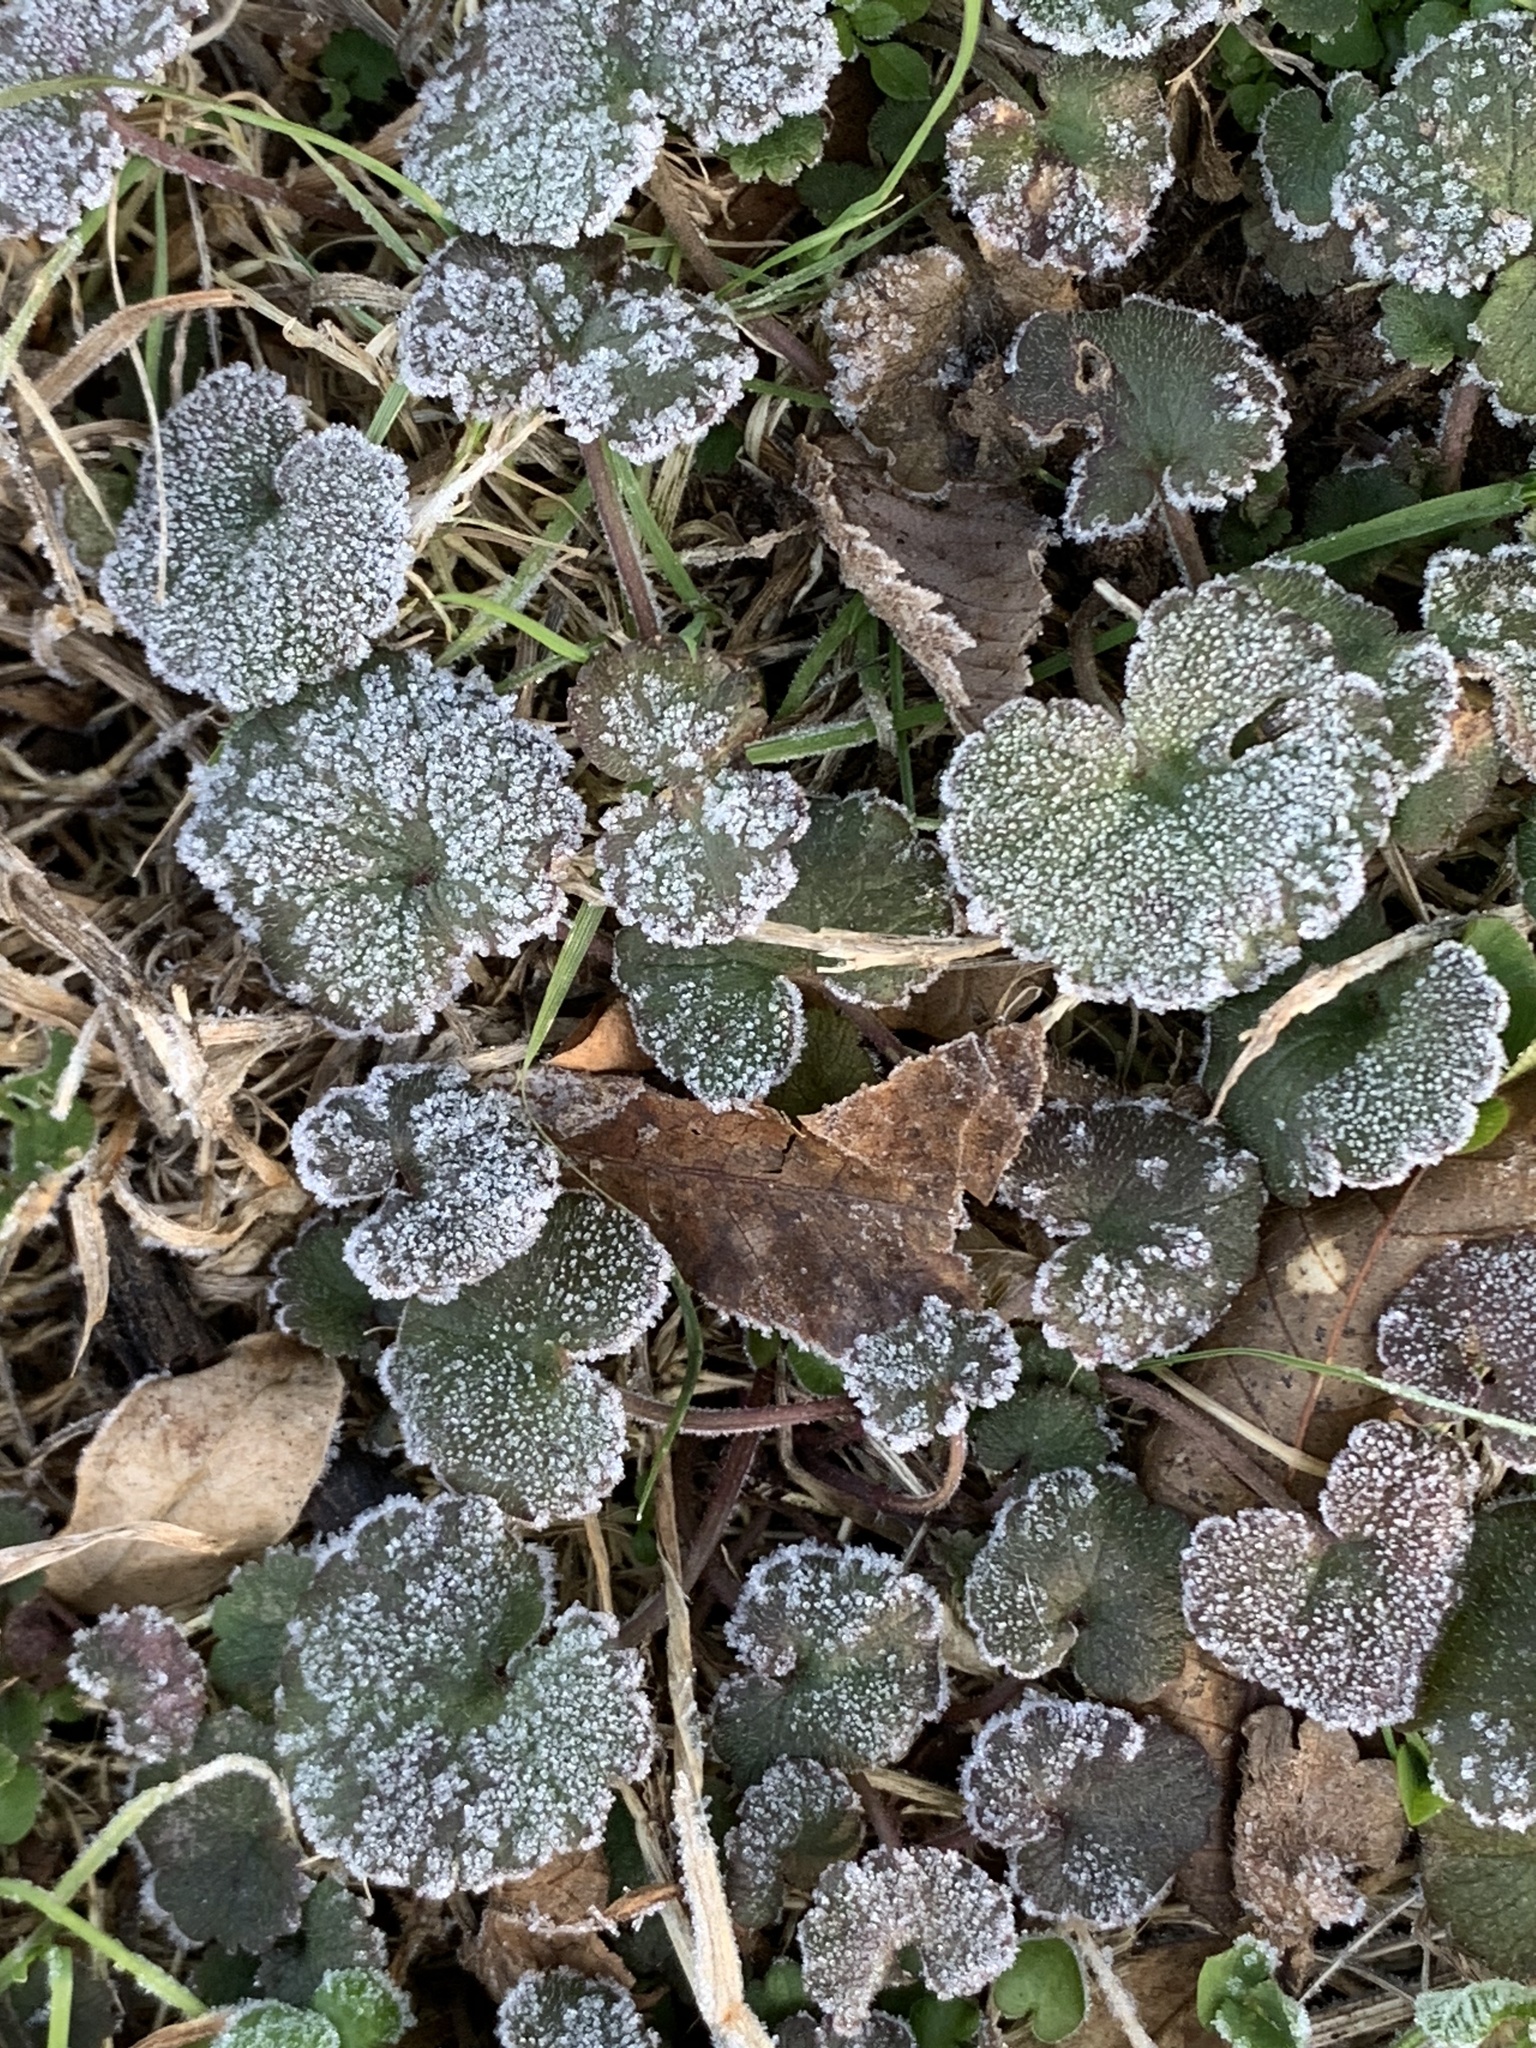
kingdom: Plantae
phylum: Tracheophyta
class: Magnoliopsida
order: Lamiales
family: Lamiaceae
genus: Glechoma
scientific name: Glechoma hederacea
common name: Ground ivy
